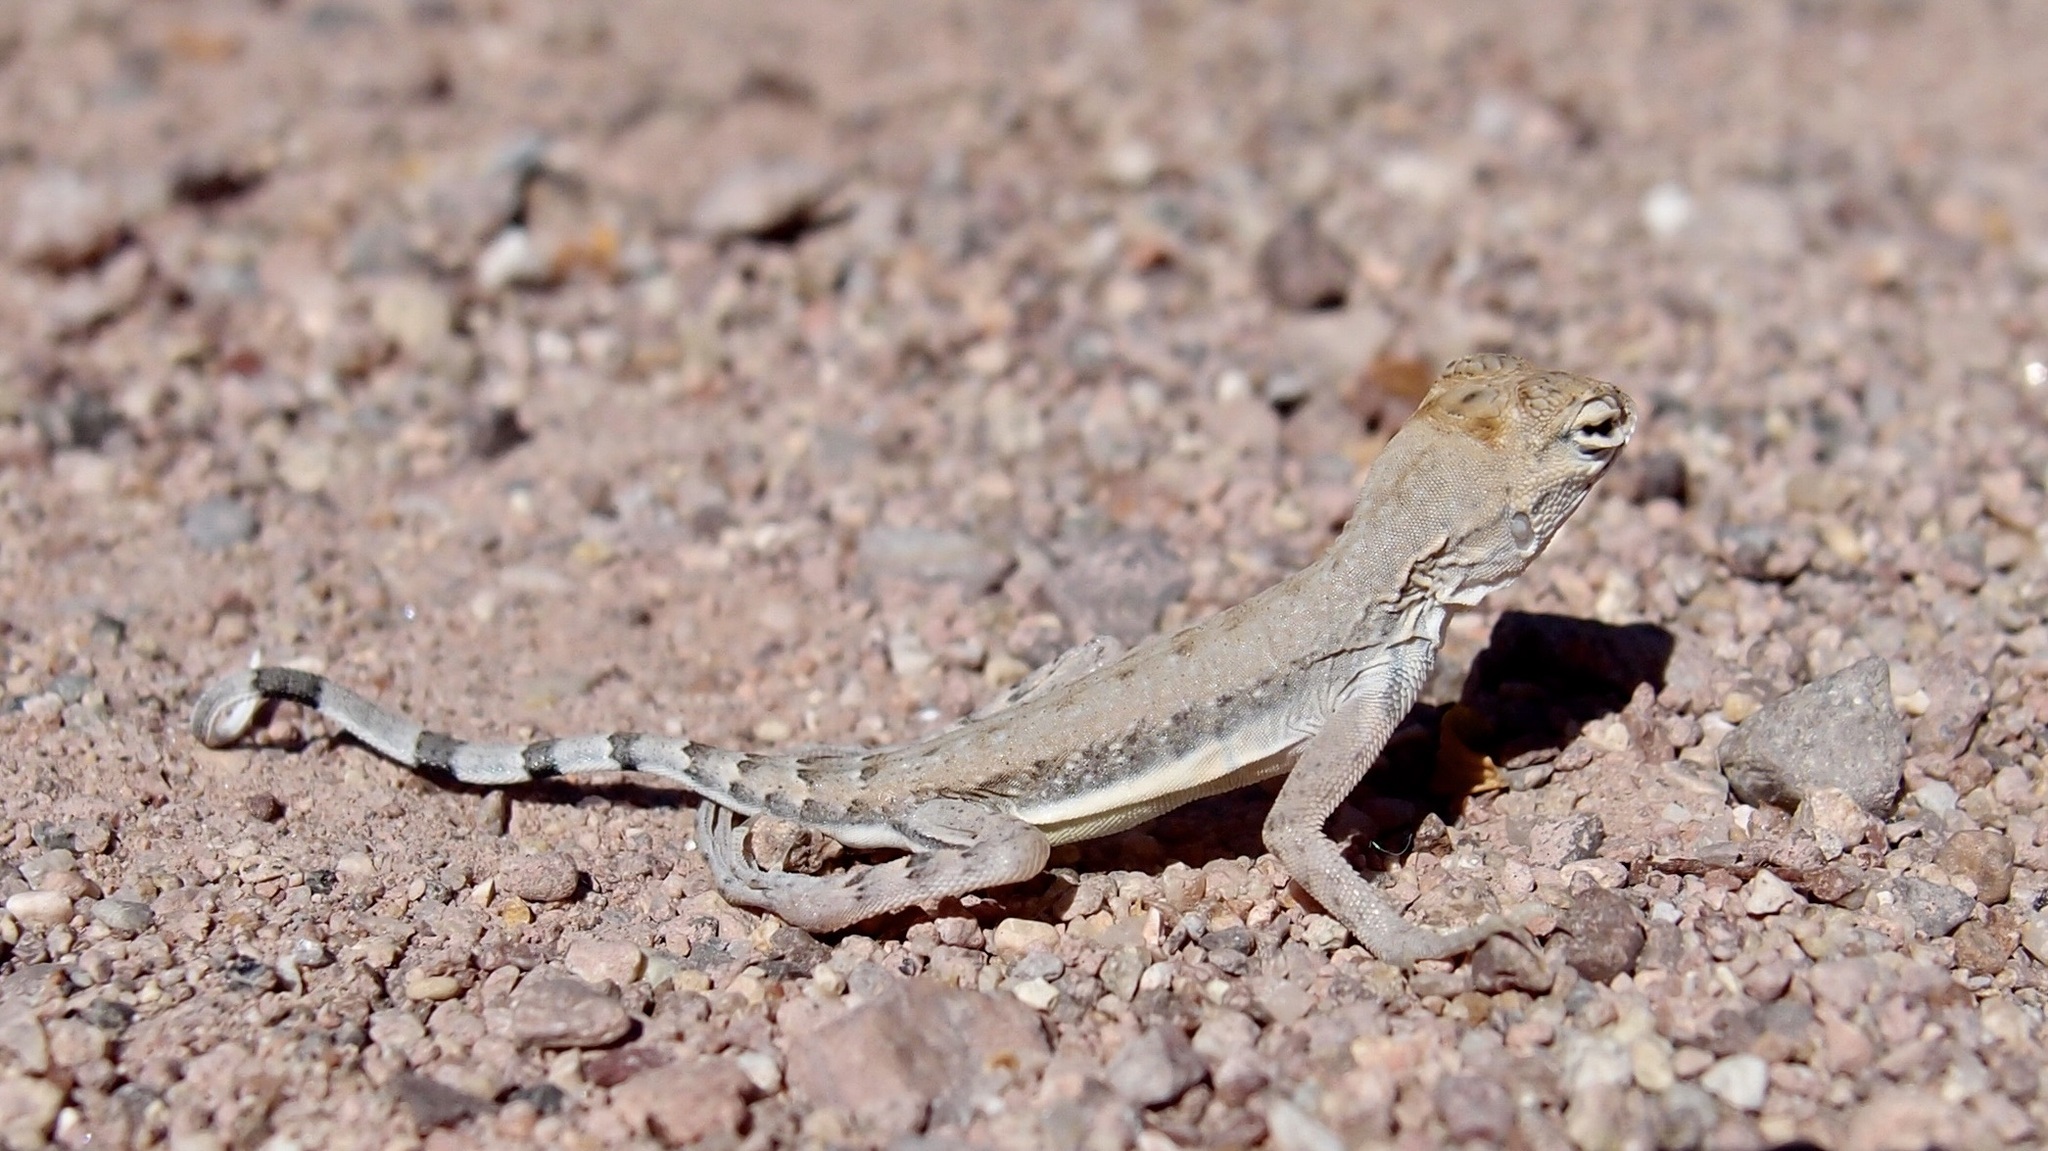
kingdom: Animalia
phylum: Chordata
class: Squamata
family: Phrynosomatidae
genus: Callisaurus
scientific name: Callisaurus draconoides
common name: Zebra-tailed lizard
